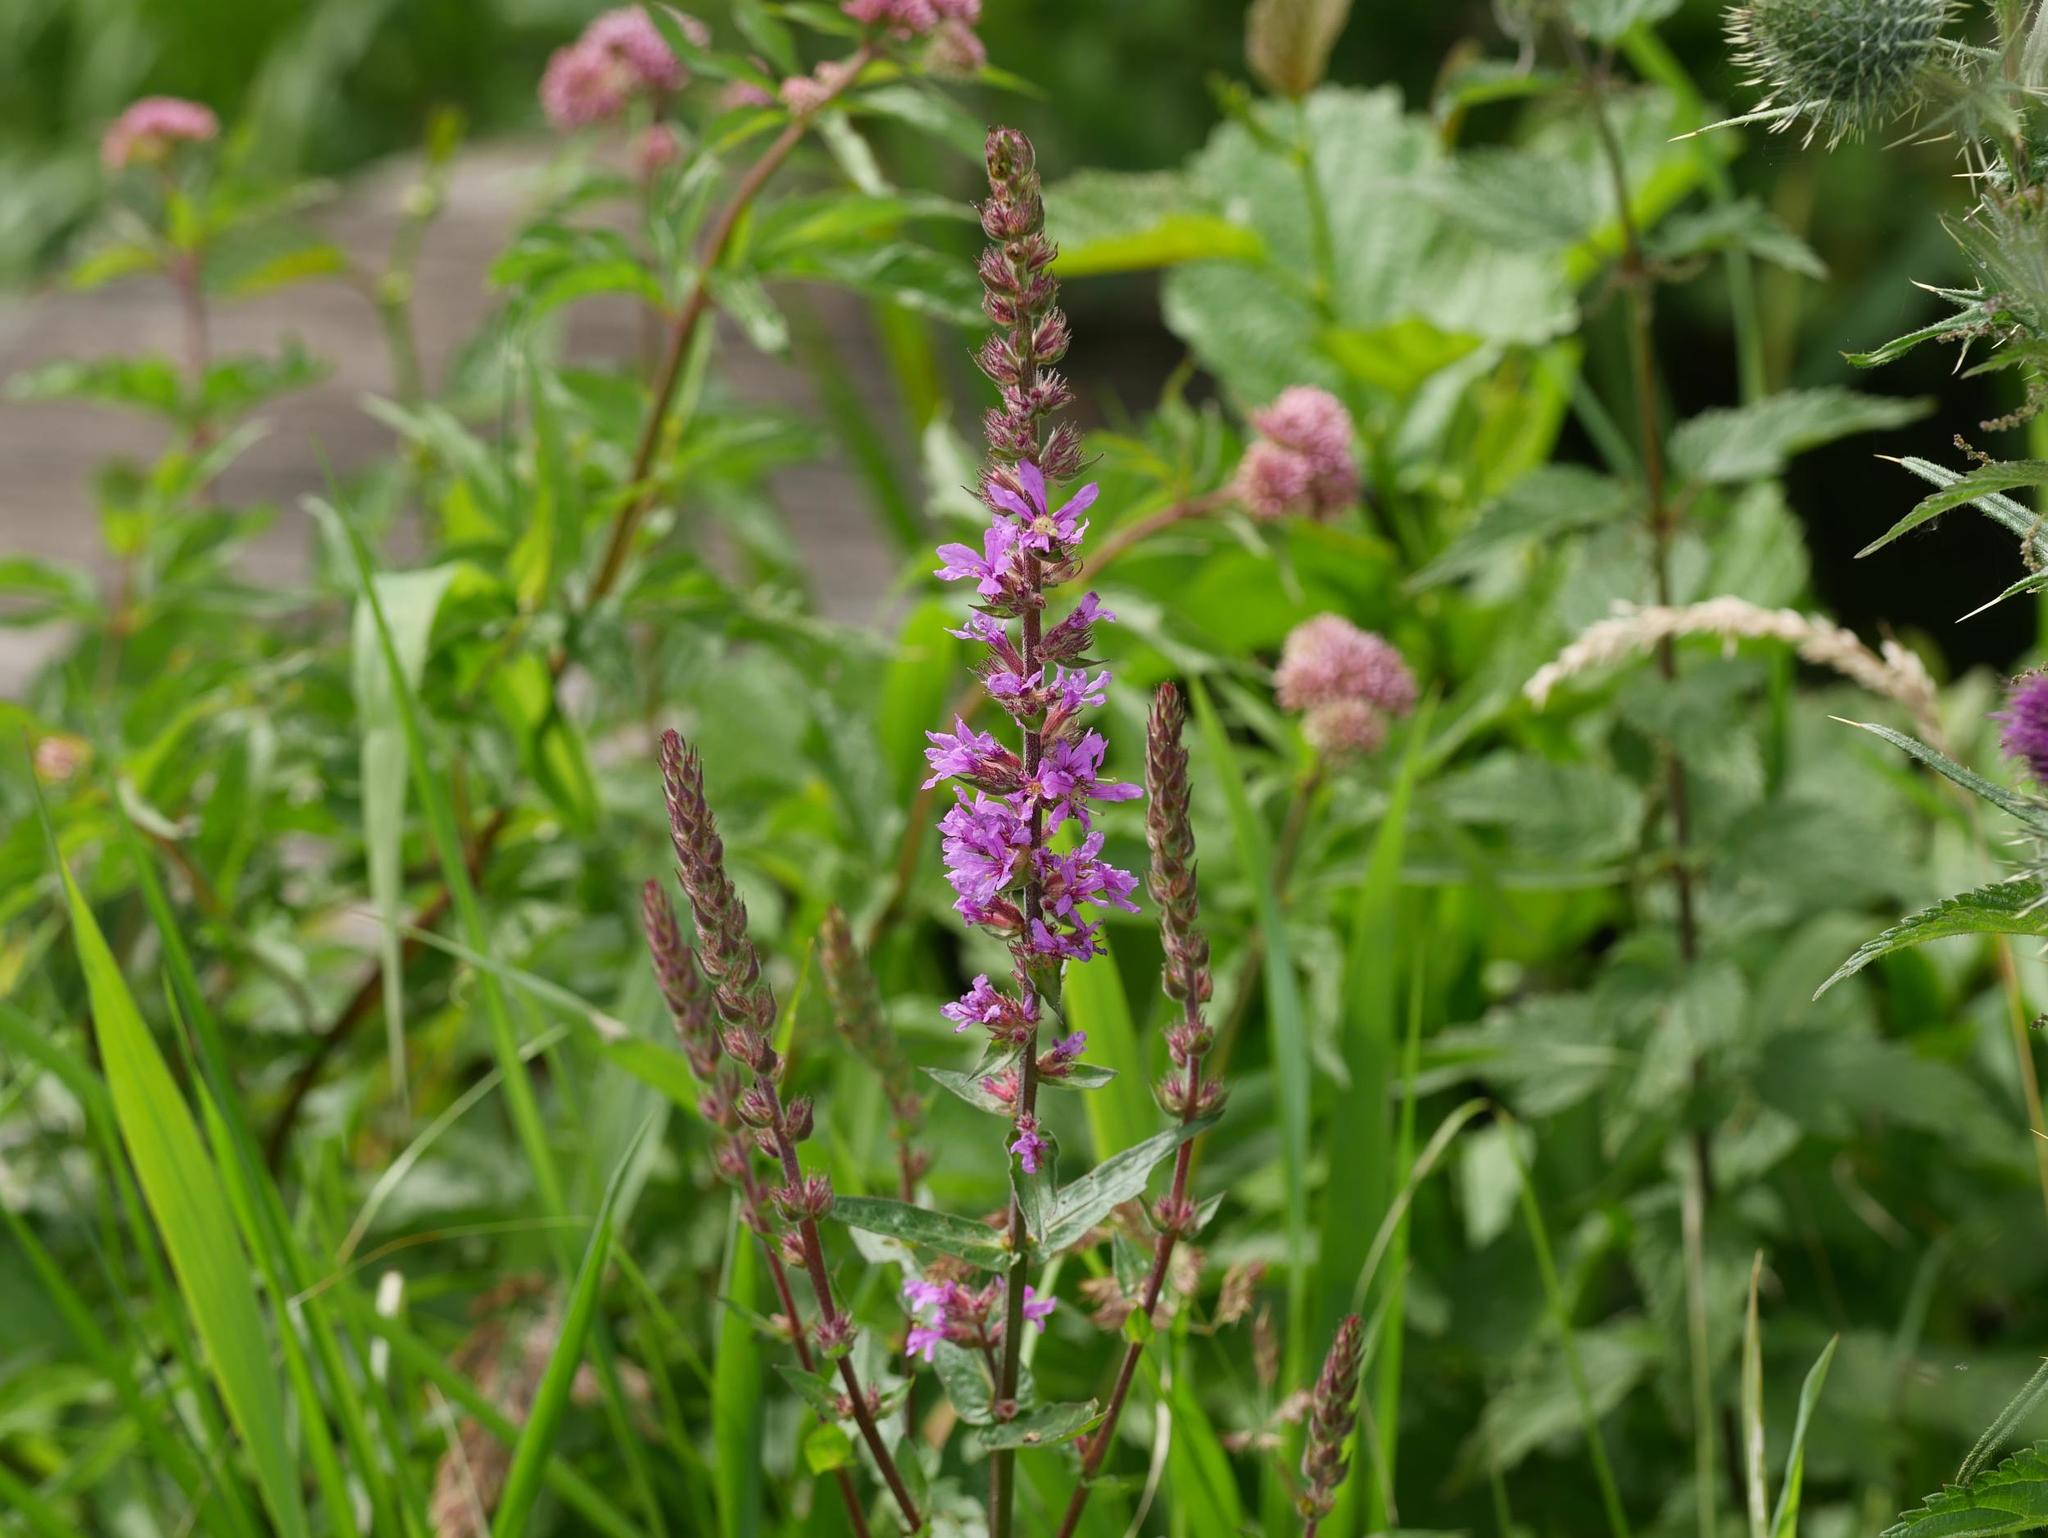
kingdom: Plantae
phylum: Tracheophyta
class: Magnoliopsida
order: Myrtales
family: Lythraceae
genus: Lythrum
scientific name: Lythrum salicaria
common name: Purple loosestrife
